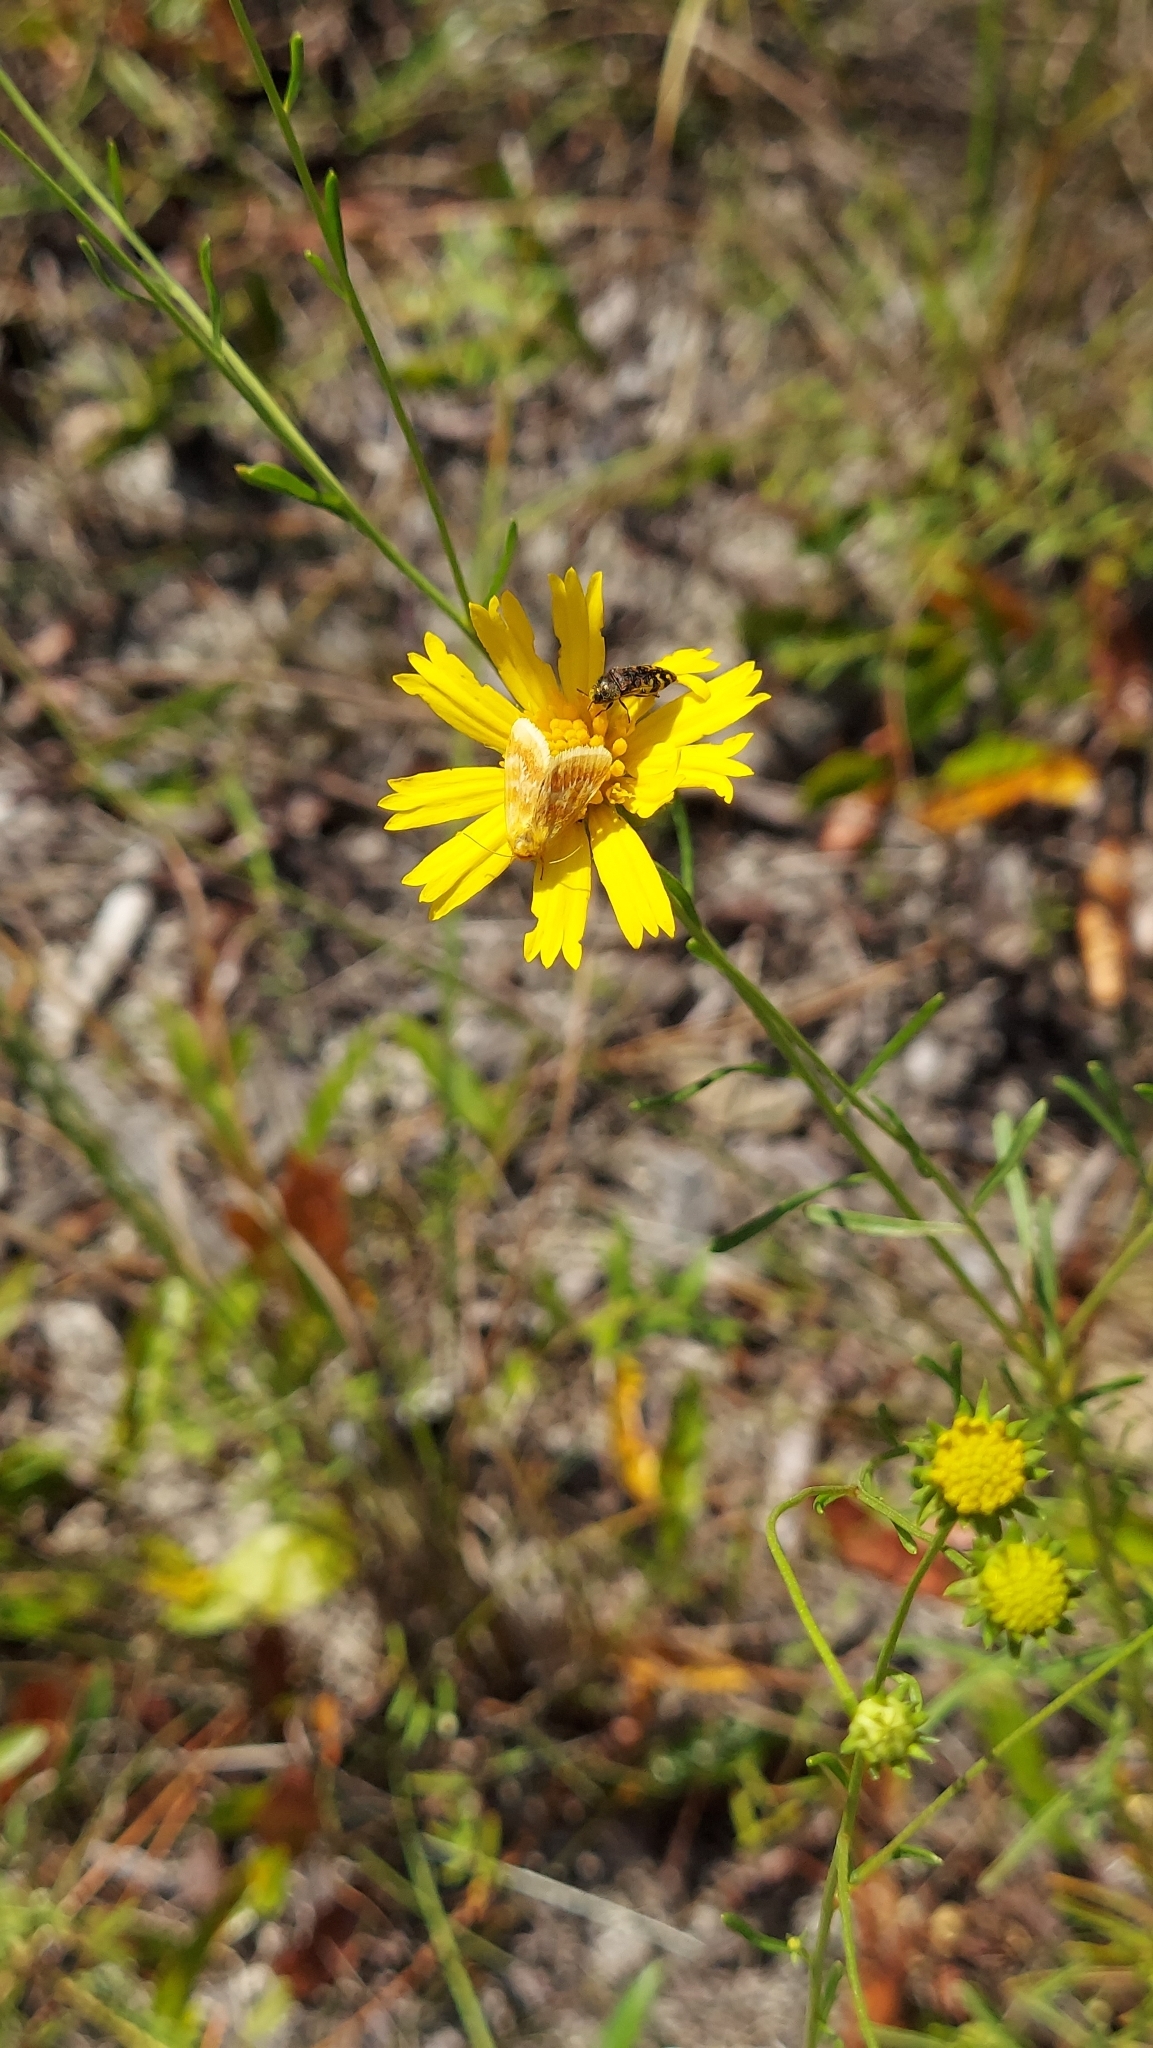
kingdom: Animalia
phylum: Arthropoda
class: Insecta
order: Lepidoptera
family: Noctuidae
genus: Schinia
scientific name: Schinia fulleri
